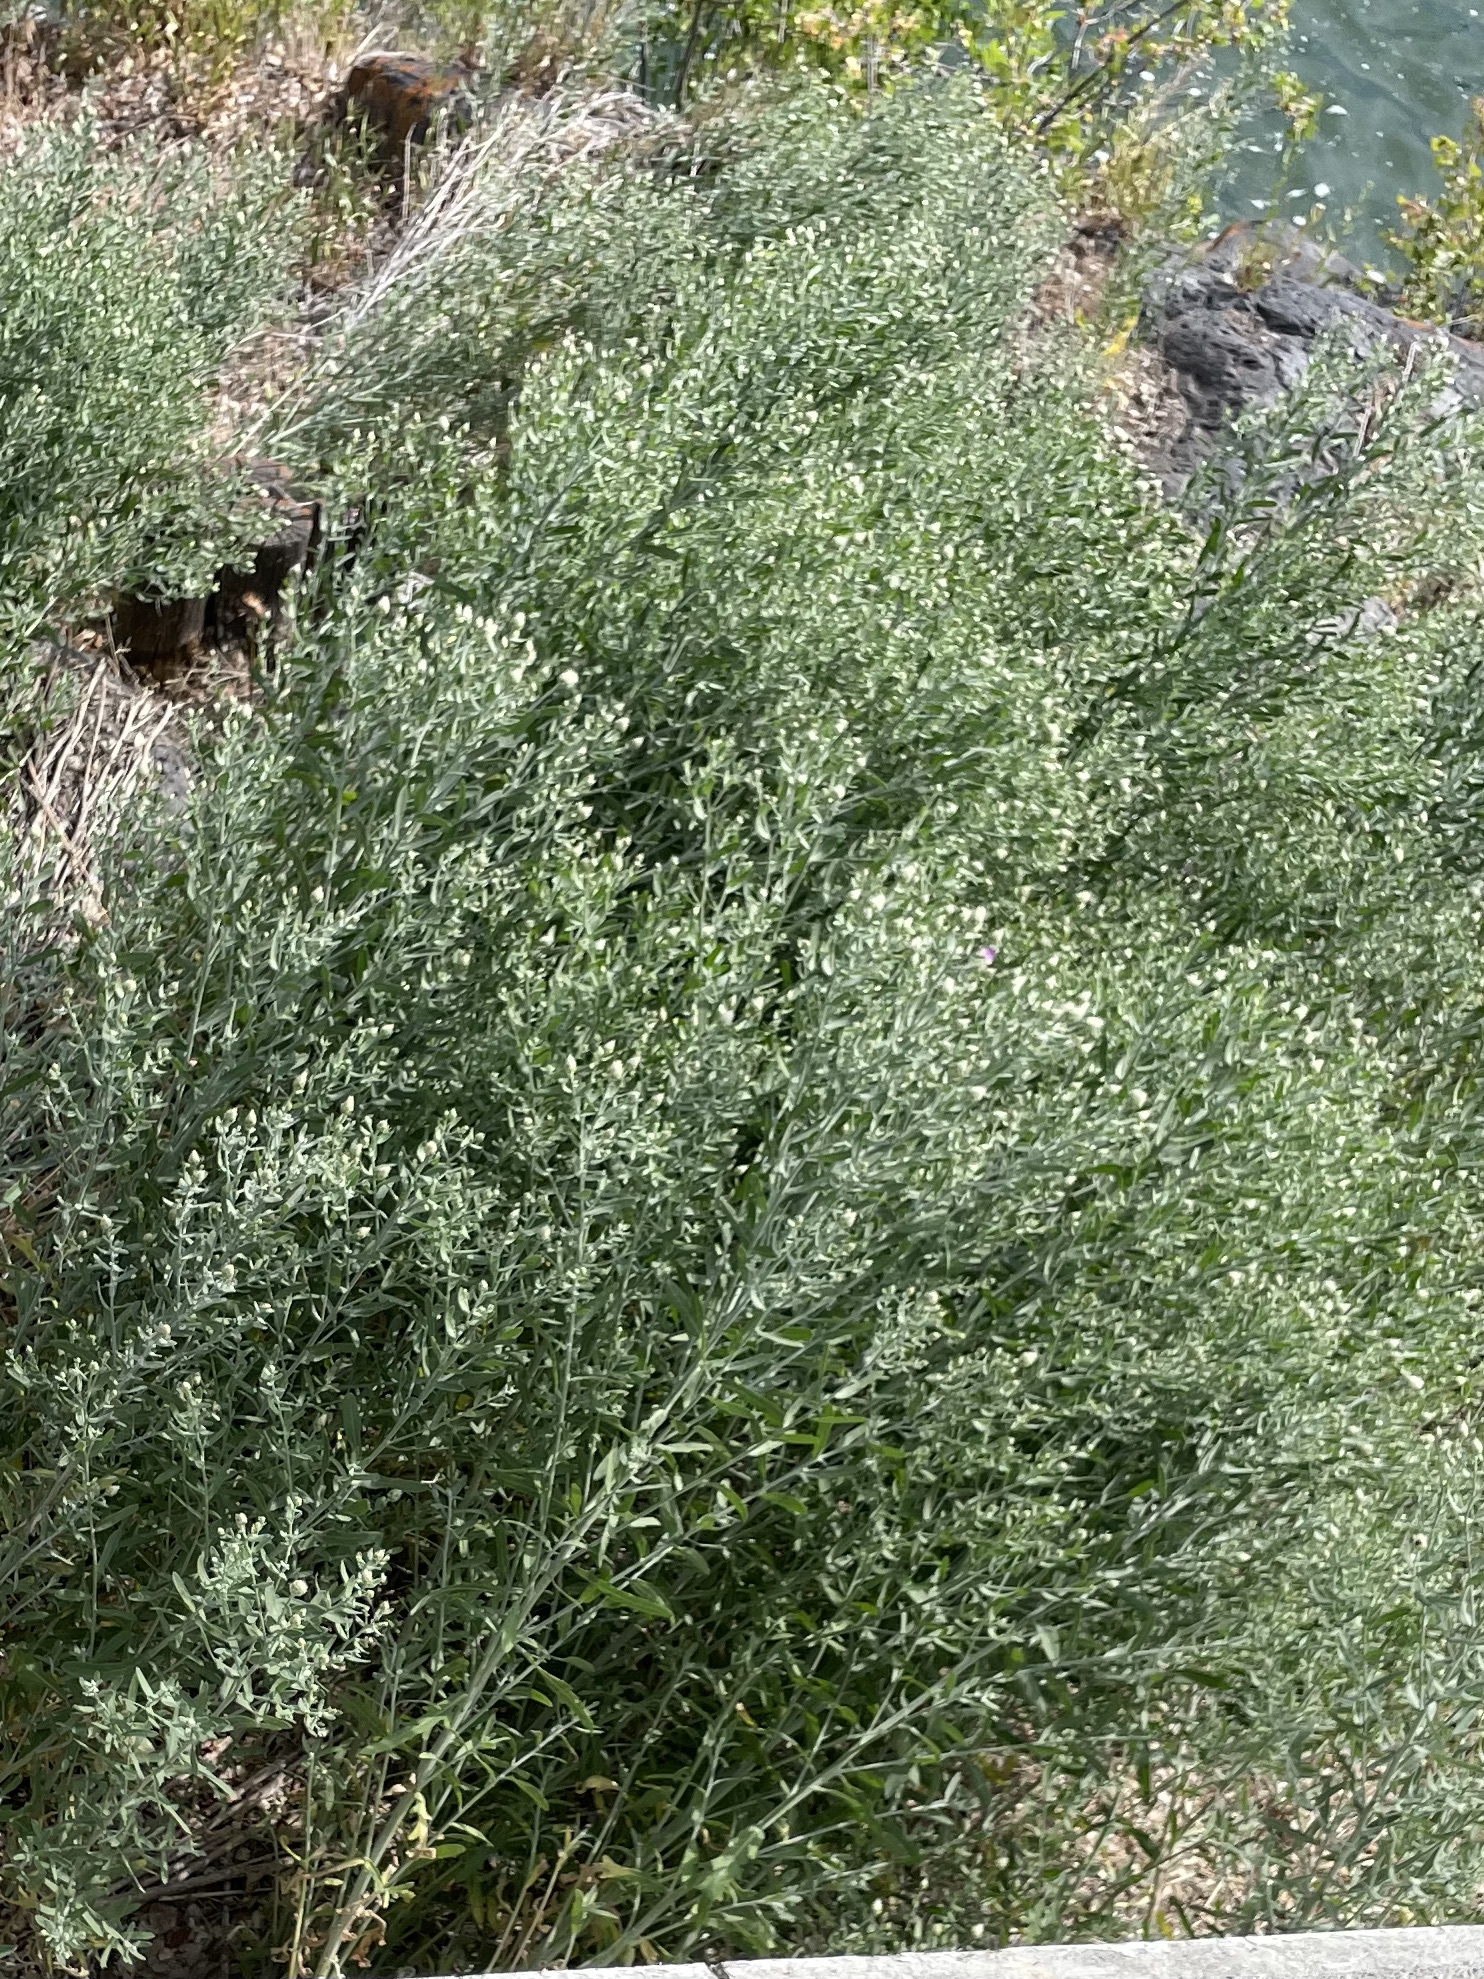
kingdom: Plantae
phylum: Tracheophyta
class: Magnoliopsida
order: Asterales
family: Asteraceae
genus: Leuzea
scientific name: Leuzea repens
